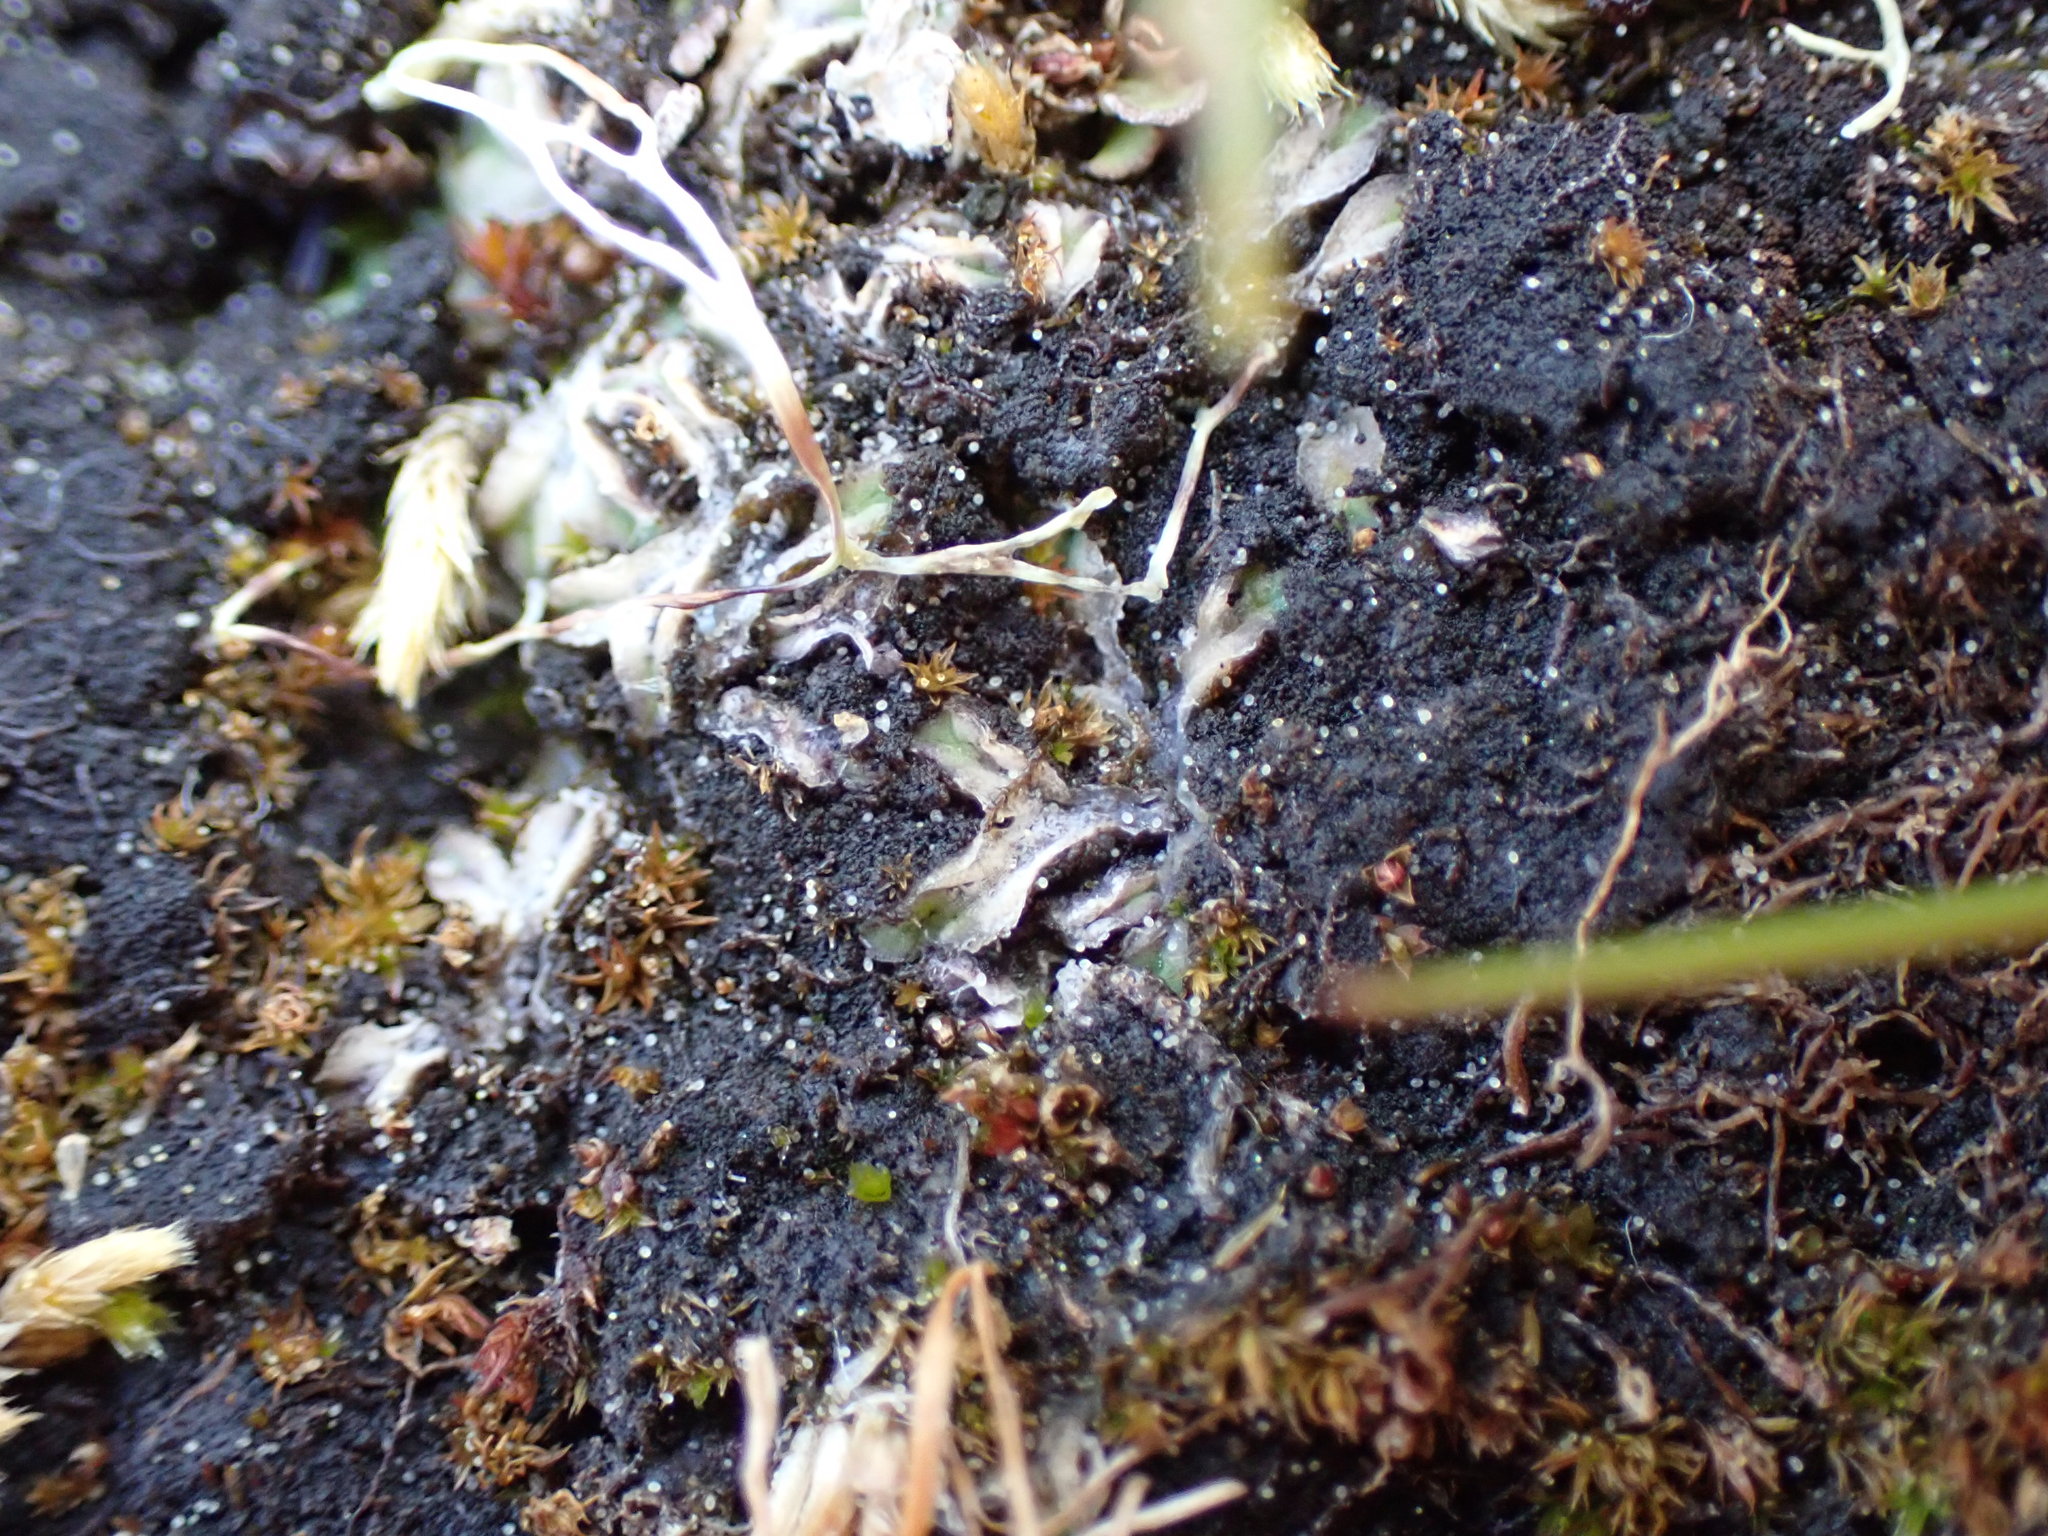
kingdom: Plantae
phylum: Marchantiophyta
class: Marchantiopsida
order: Marchantiales
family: Ricciaceae
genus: Riccia
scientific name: Riccia sorocarpa
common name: Common crystalwort
